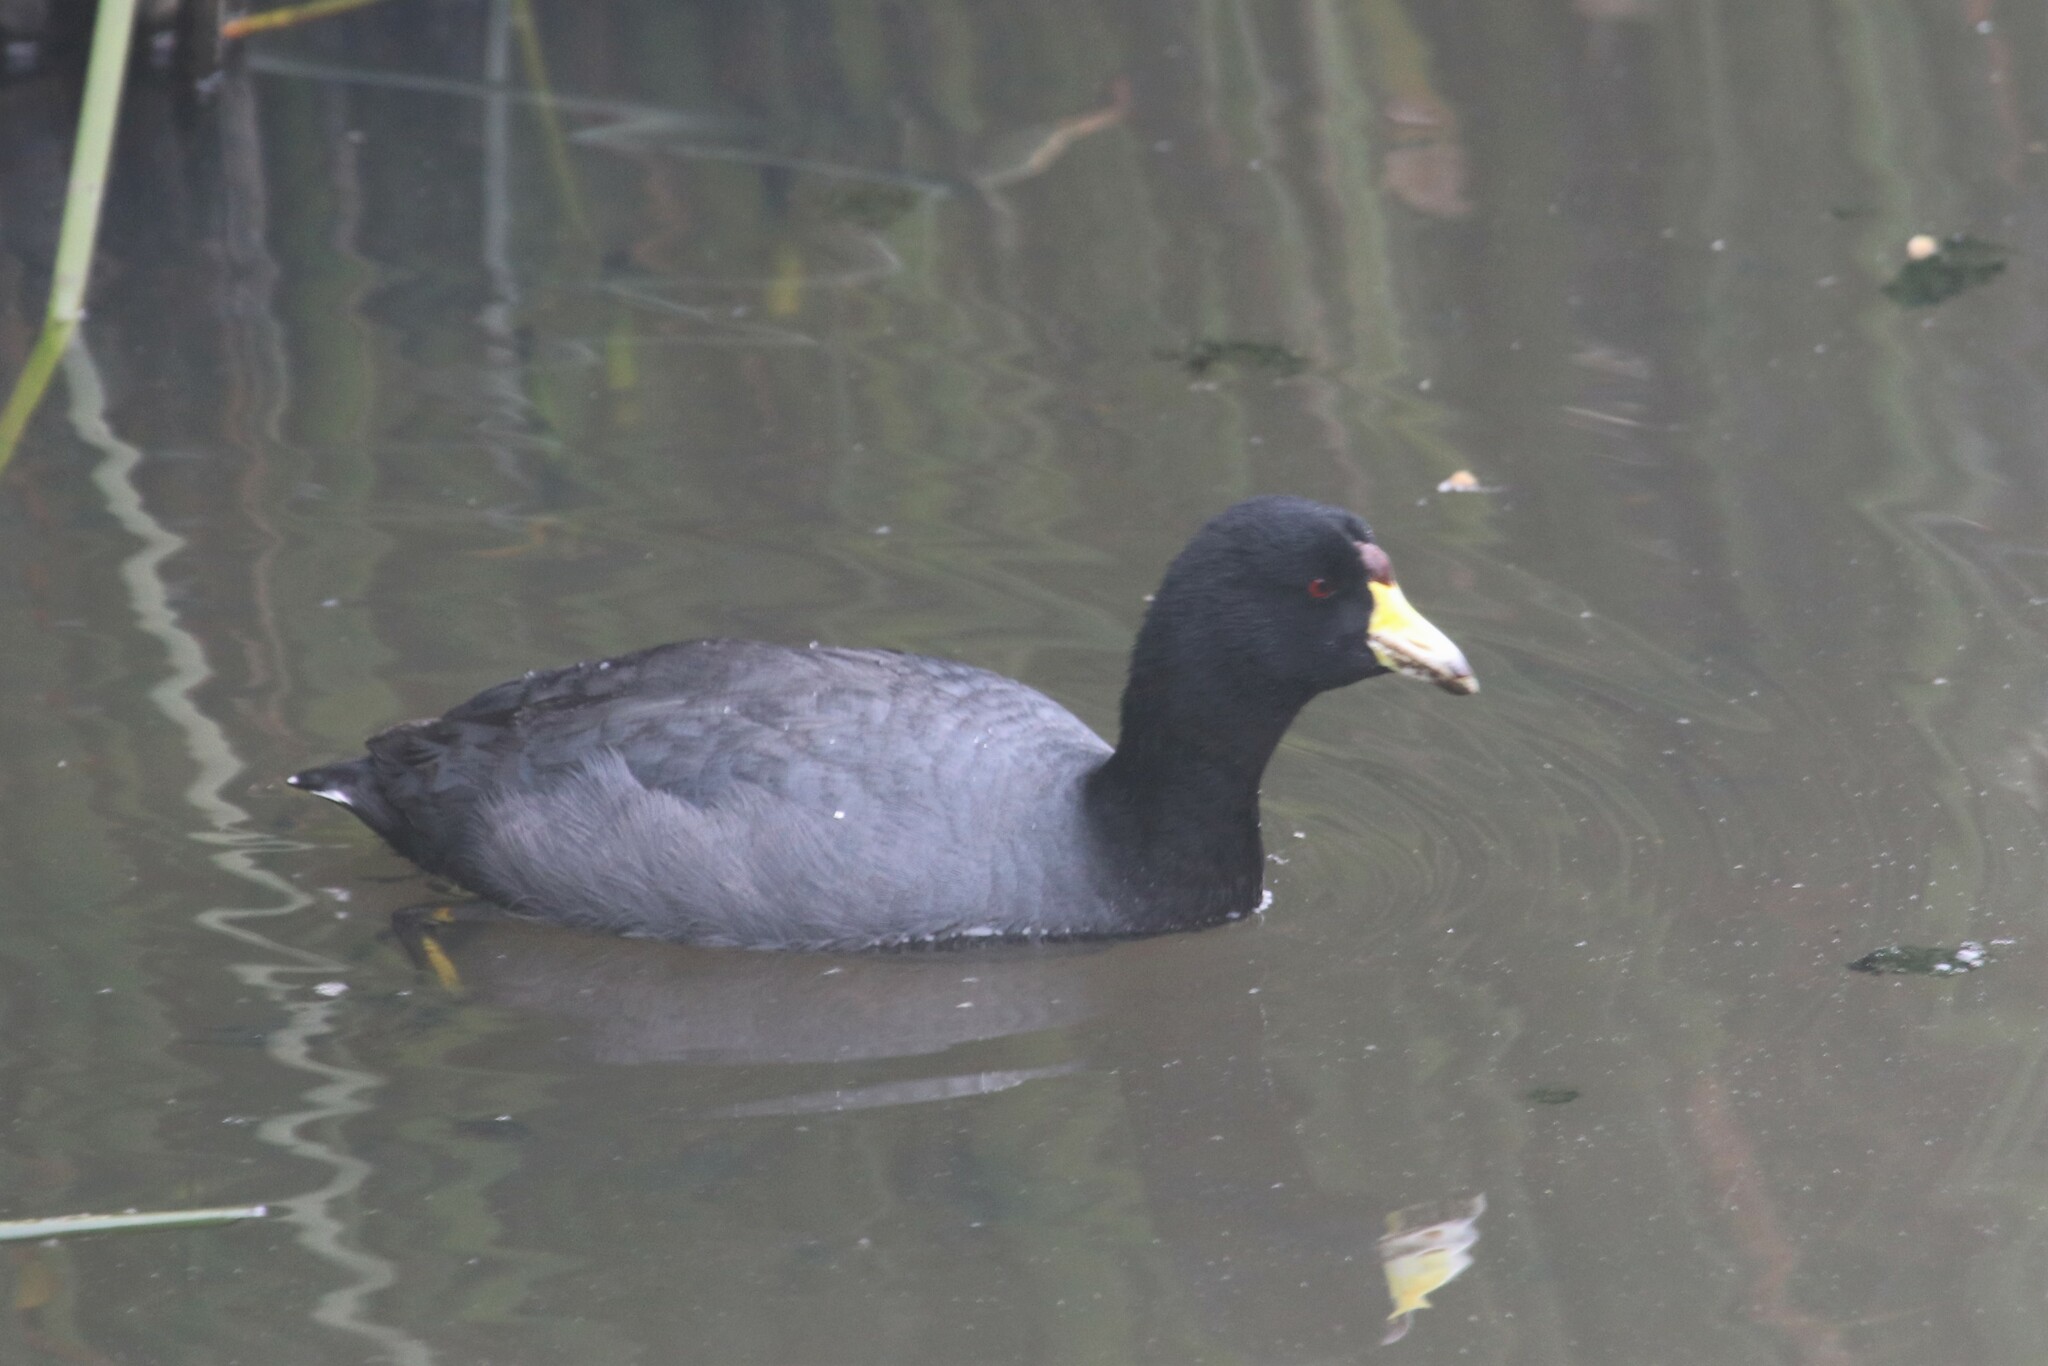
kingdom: Animalia
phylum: Chordata
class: Aves
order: Gruiformes
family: Rallidae
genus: Fulica
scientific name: Fulica americana
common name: American coot
